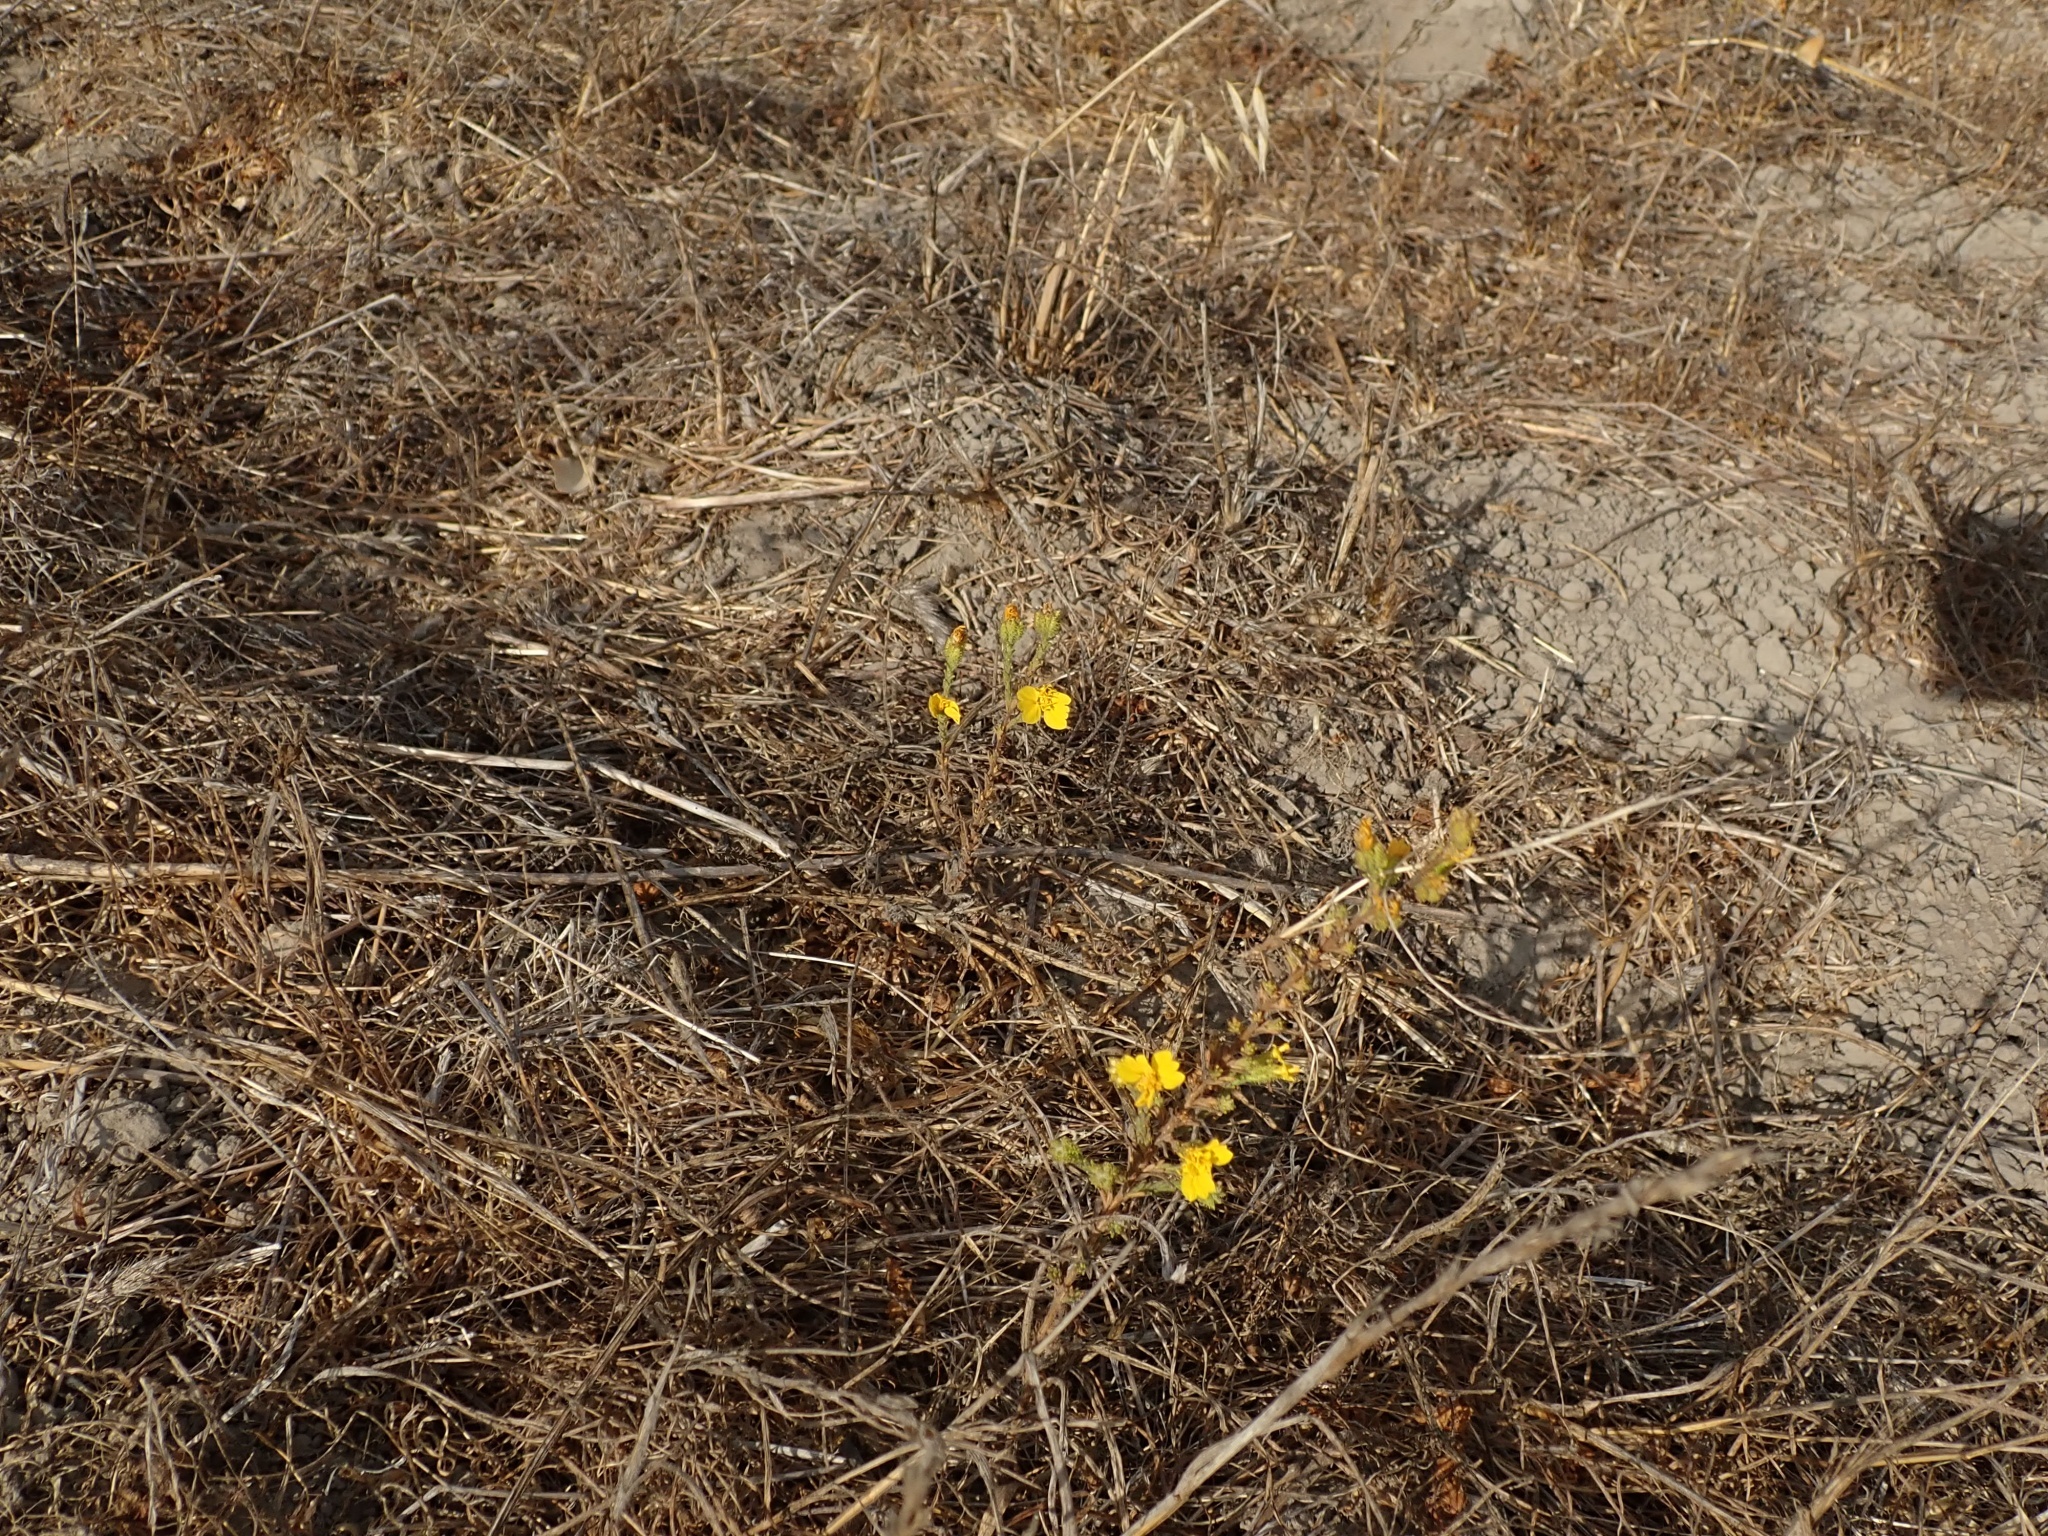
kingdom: Plantae
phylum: Tracheophyta
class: Magnoliopsida
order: Asterales
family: Asteraceae
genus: Holocarpha
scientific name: Holocarpha heermannii
